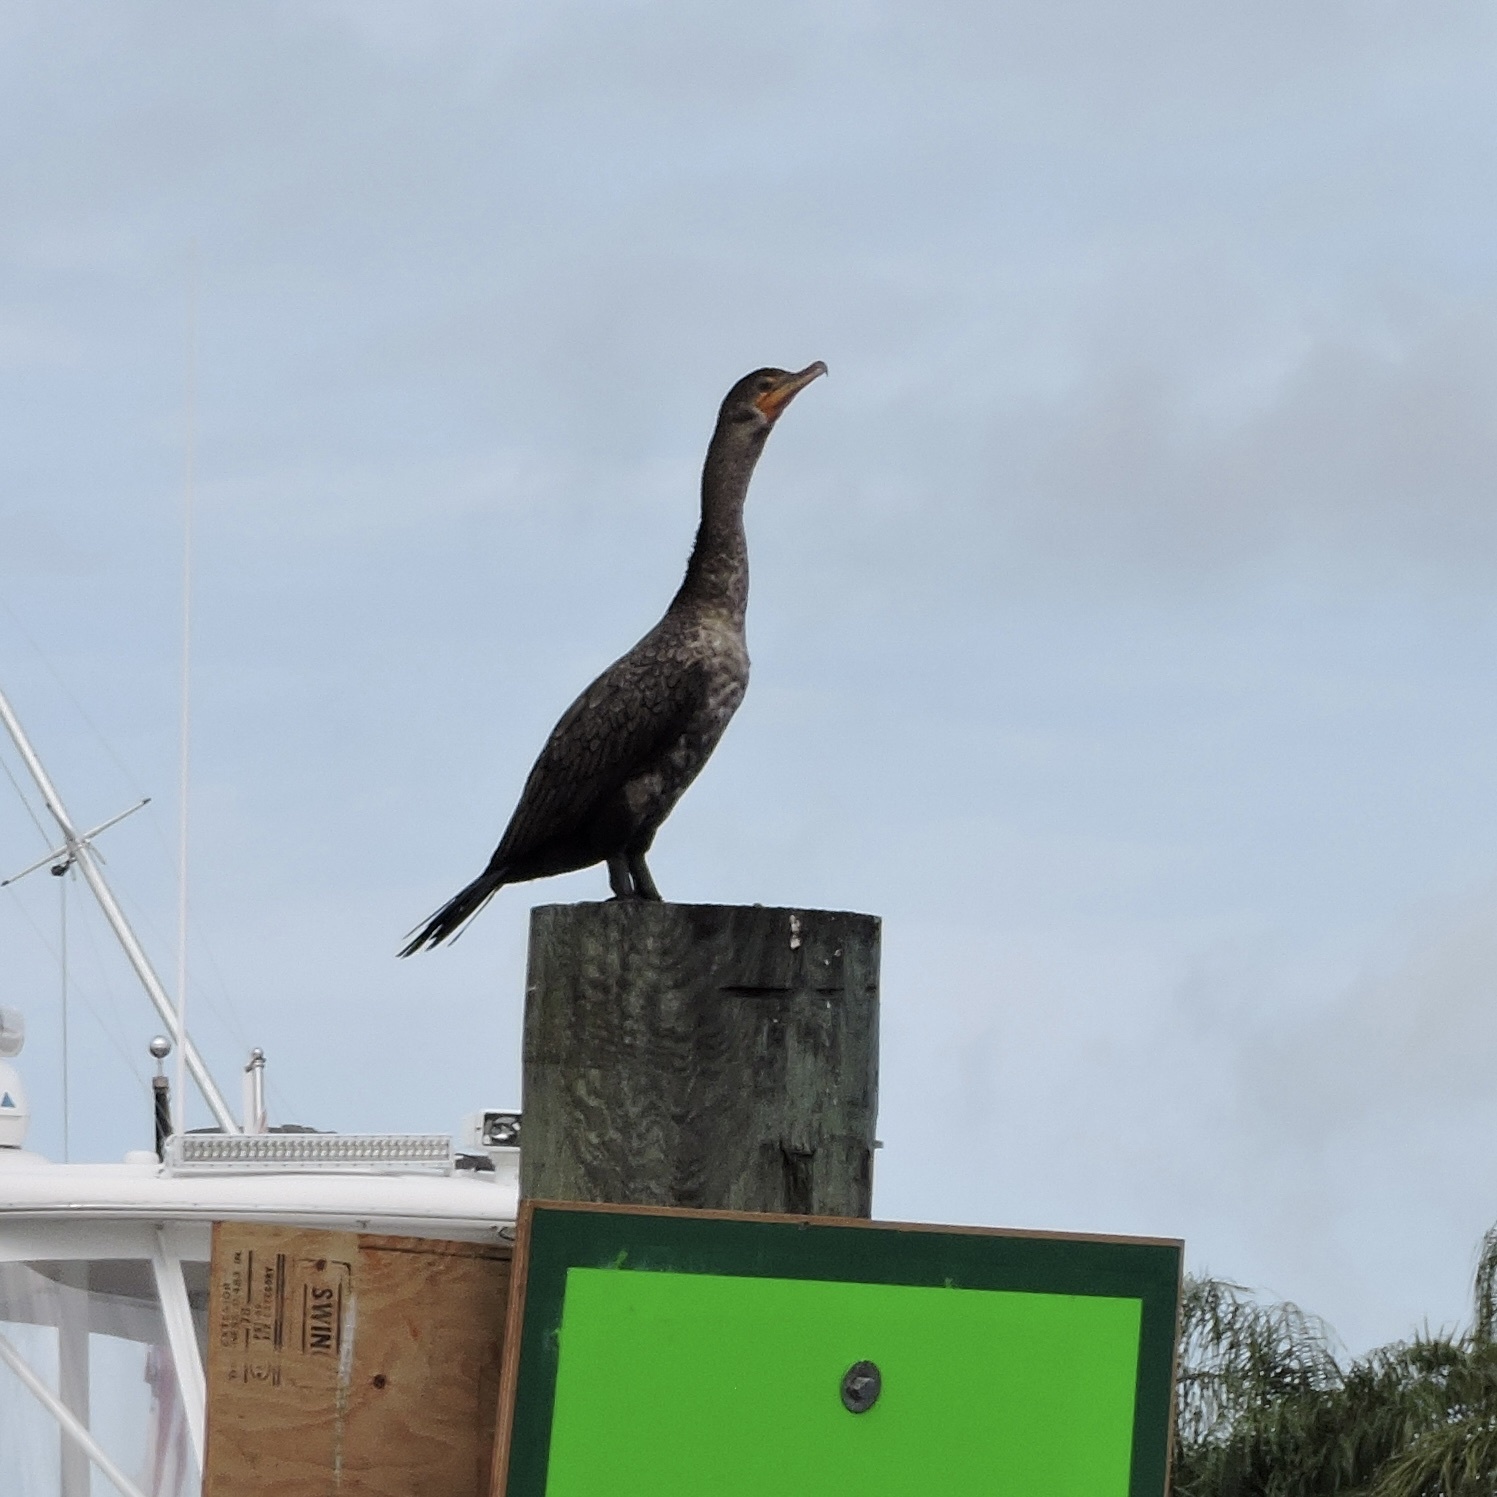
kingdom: Animalia
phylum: Chordata
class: Aves
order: Suliformes
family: Phalacrocoracidae
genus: Phalacrocorax
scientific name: Phalacrocorax auritus
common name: Double-crested cormorant
